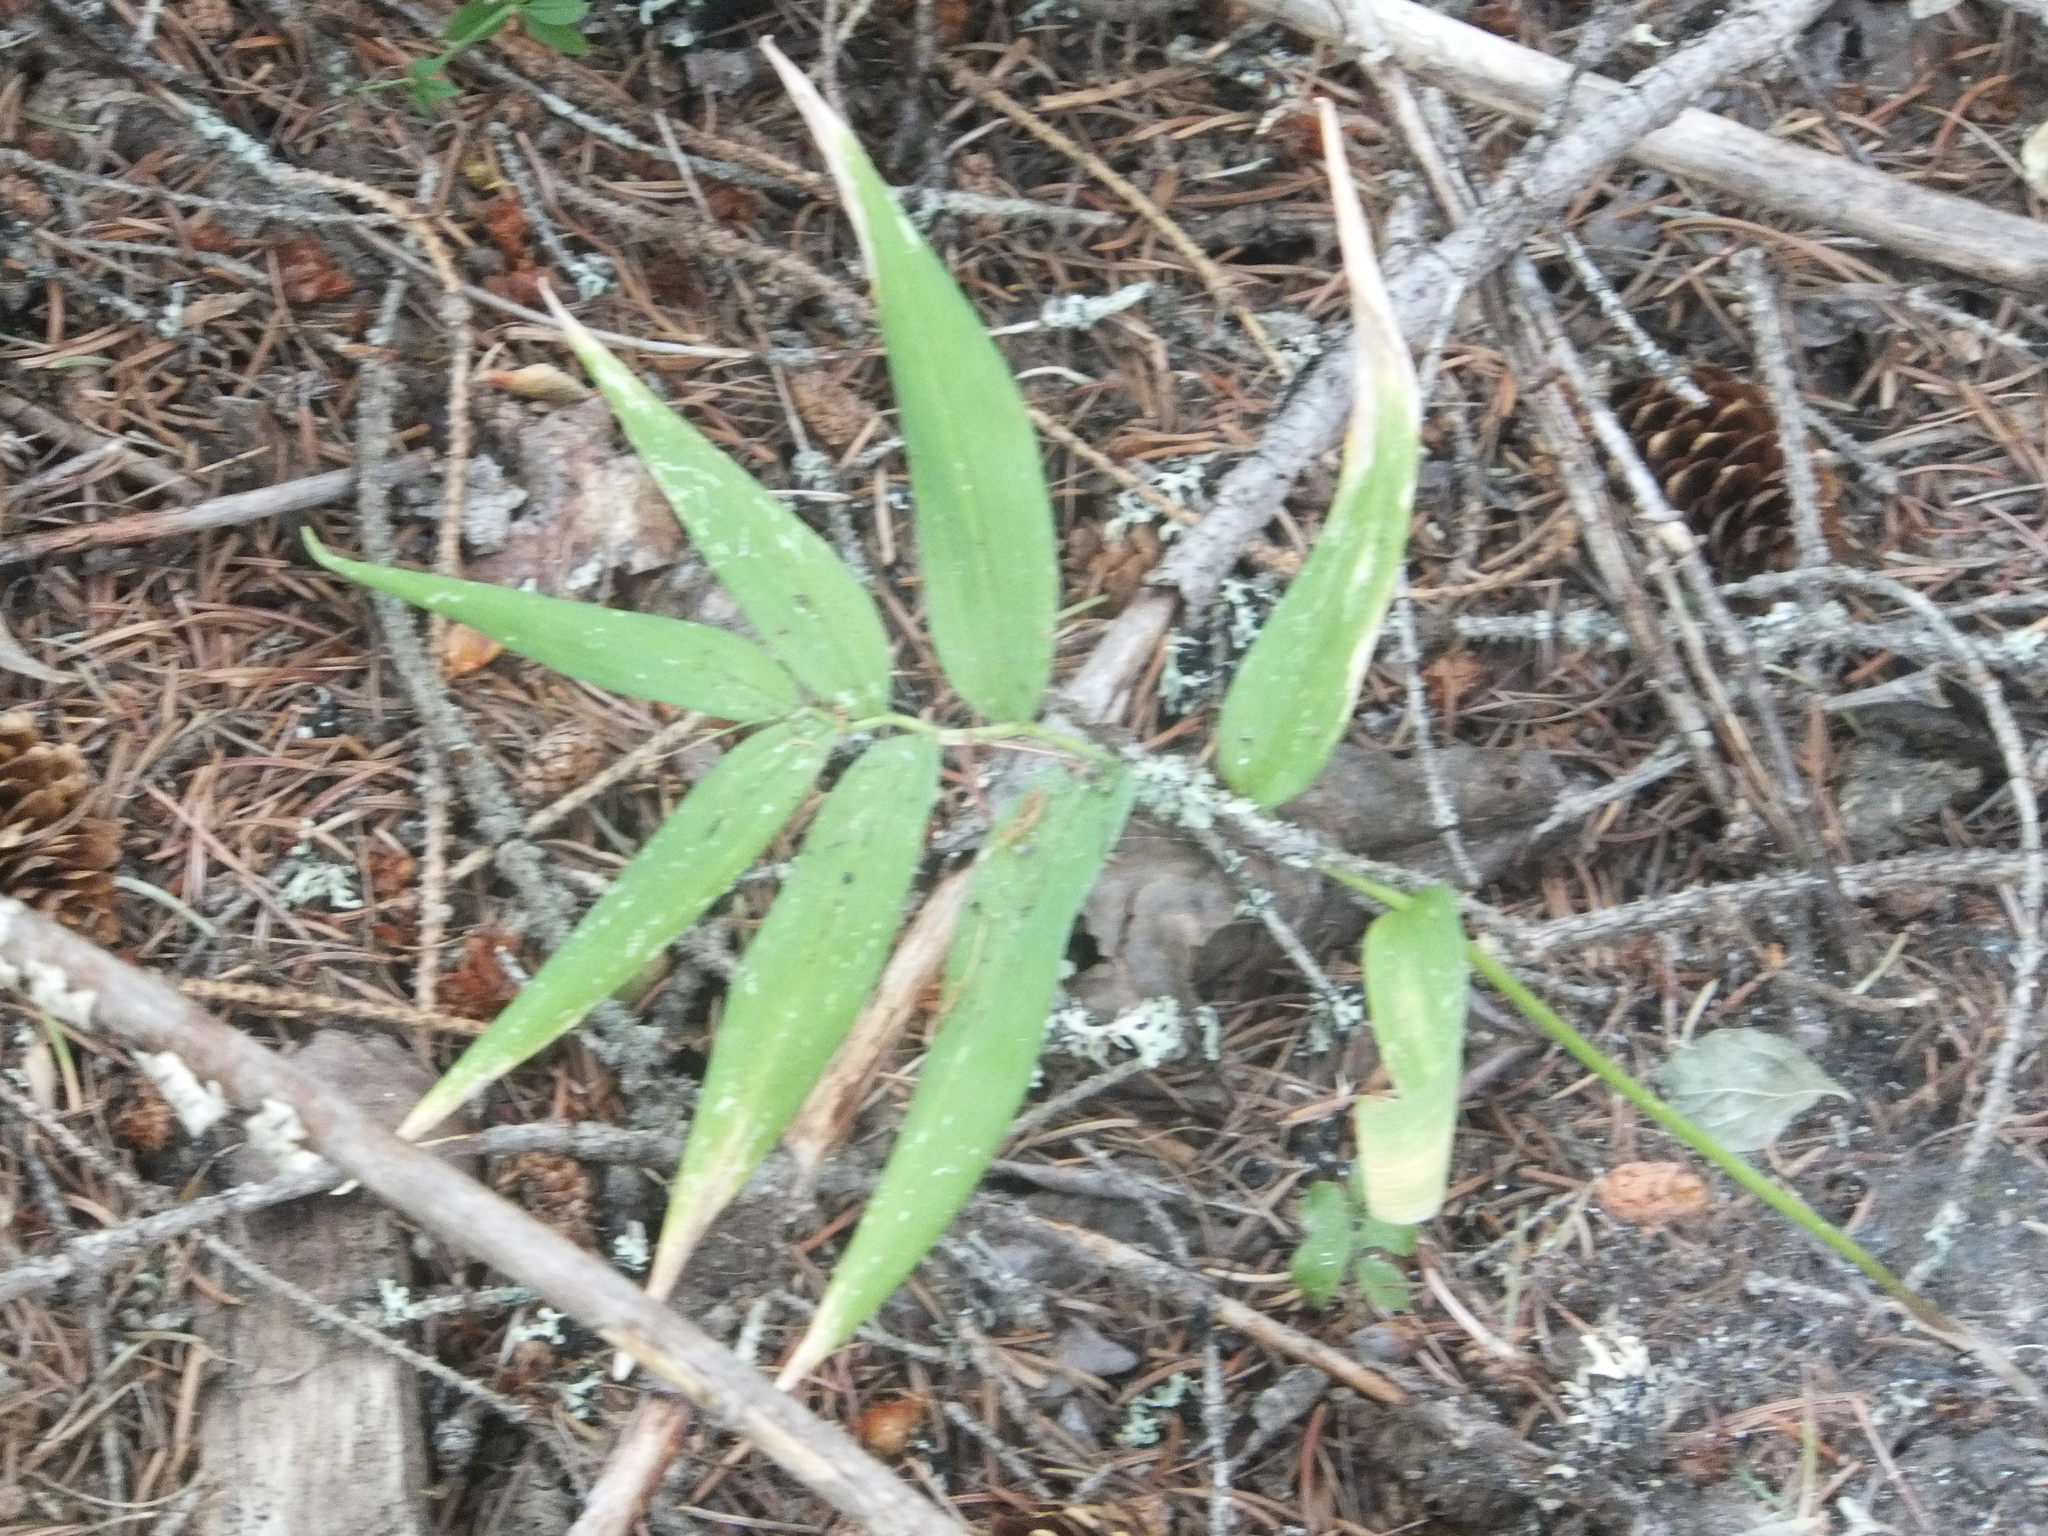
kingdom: Plantae
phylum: Tracheophyta
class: Liliopsida
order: Asparagales
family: Asparagaceae
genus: Maianthemum
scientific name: Maianthemum stellatum
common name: Little false solomon's seal
